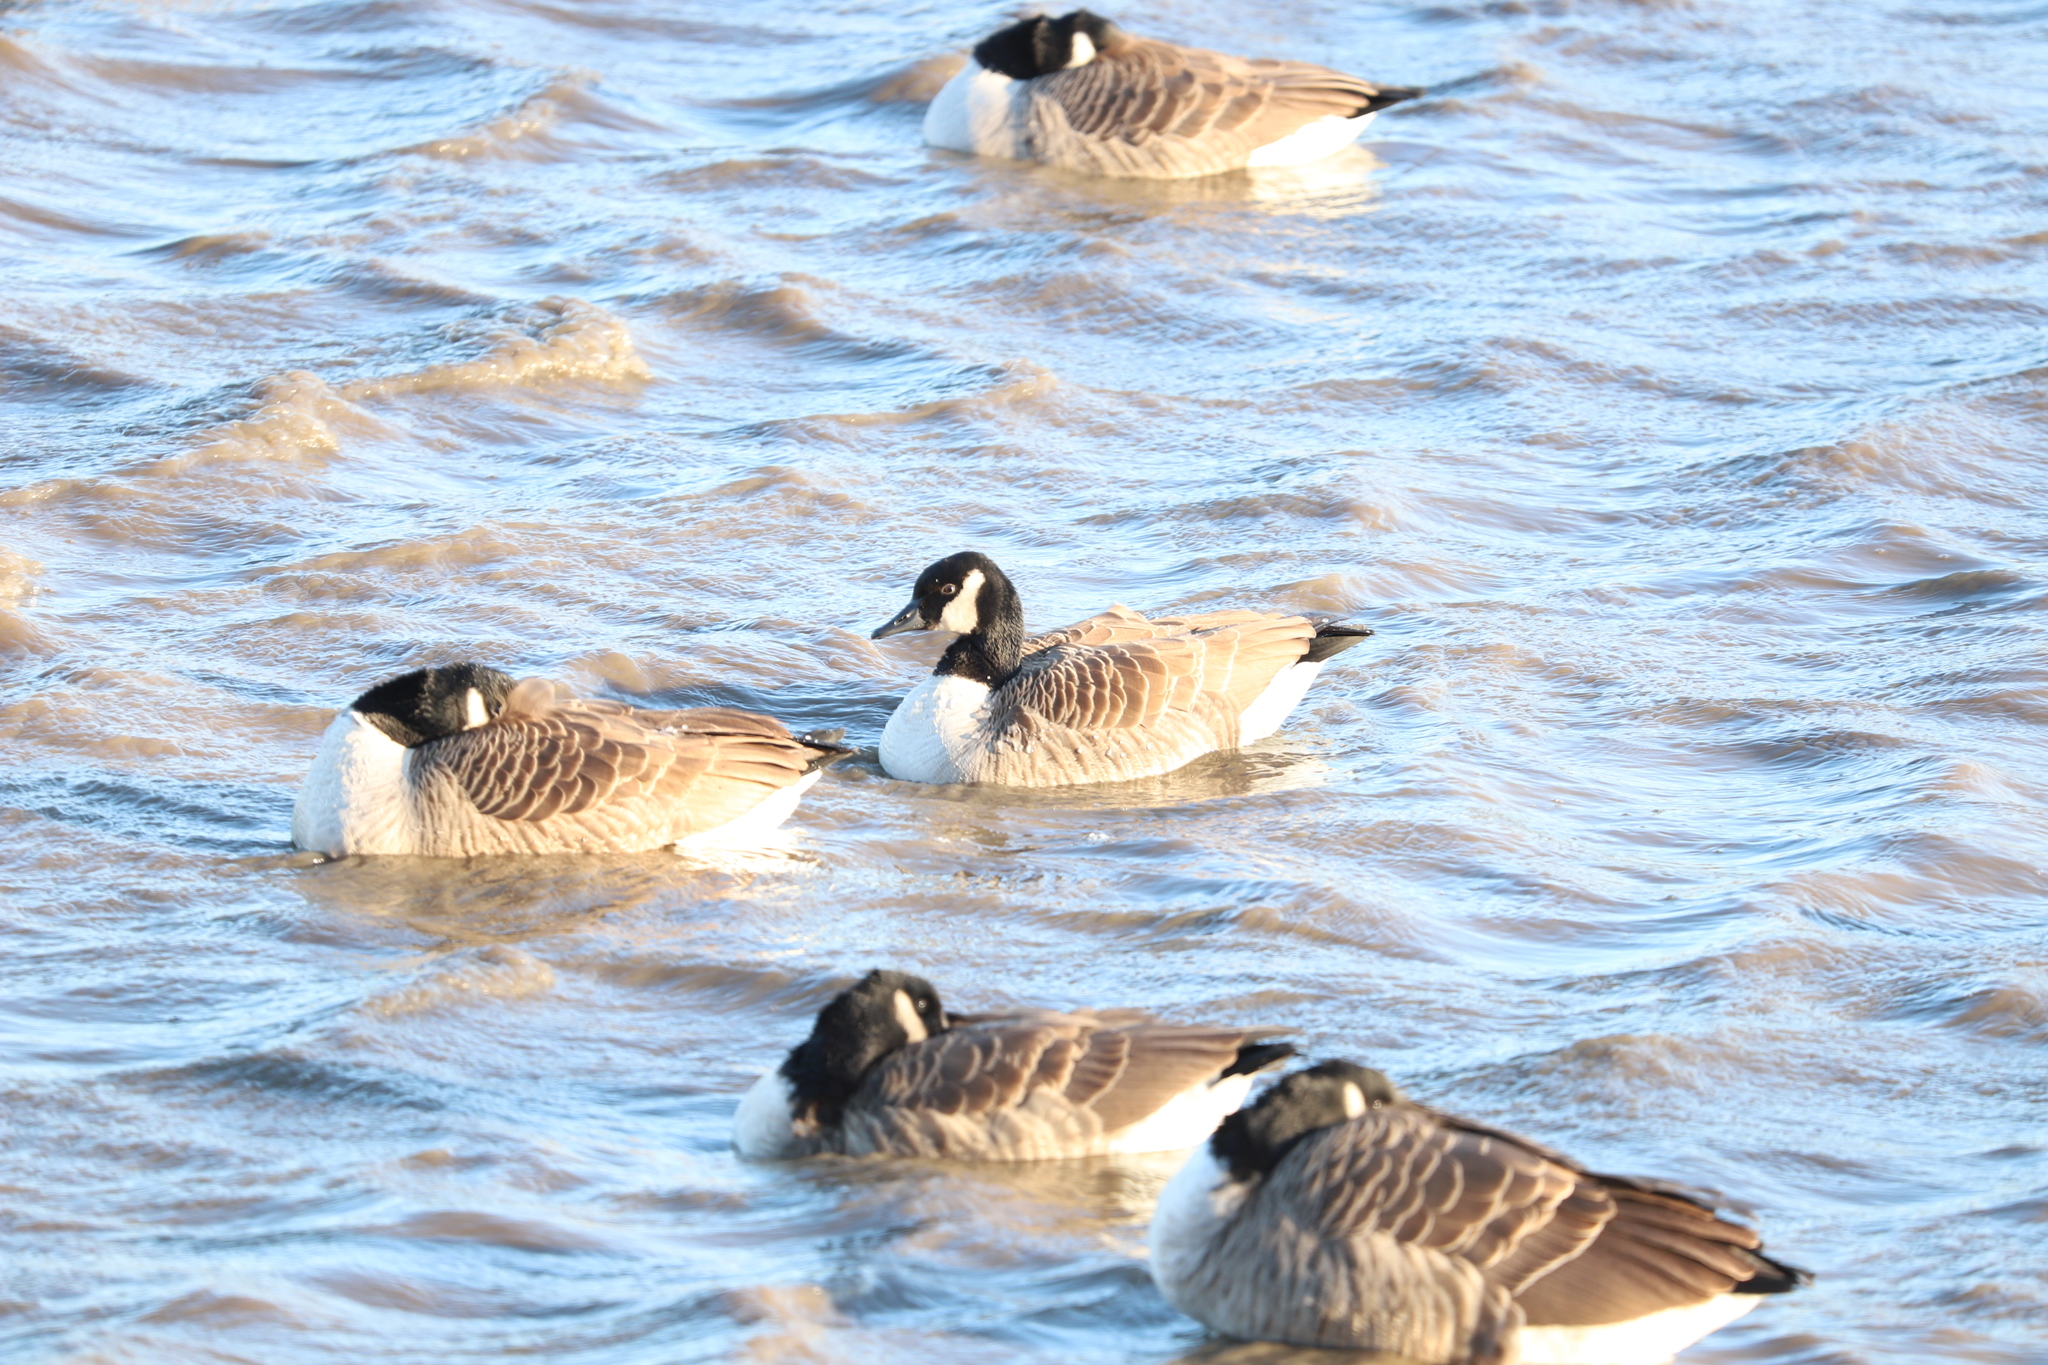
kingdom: Animalia
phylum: Chordata
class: Aves
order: Anseriformes
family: Anatidae
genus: Branta
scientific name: Branta canadensis
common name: Canada goose
